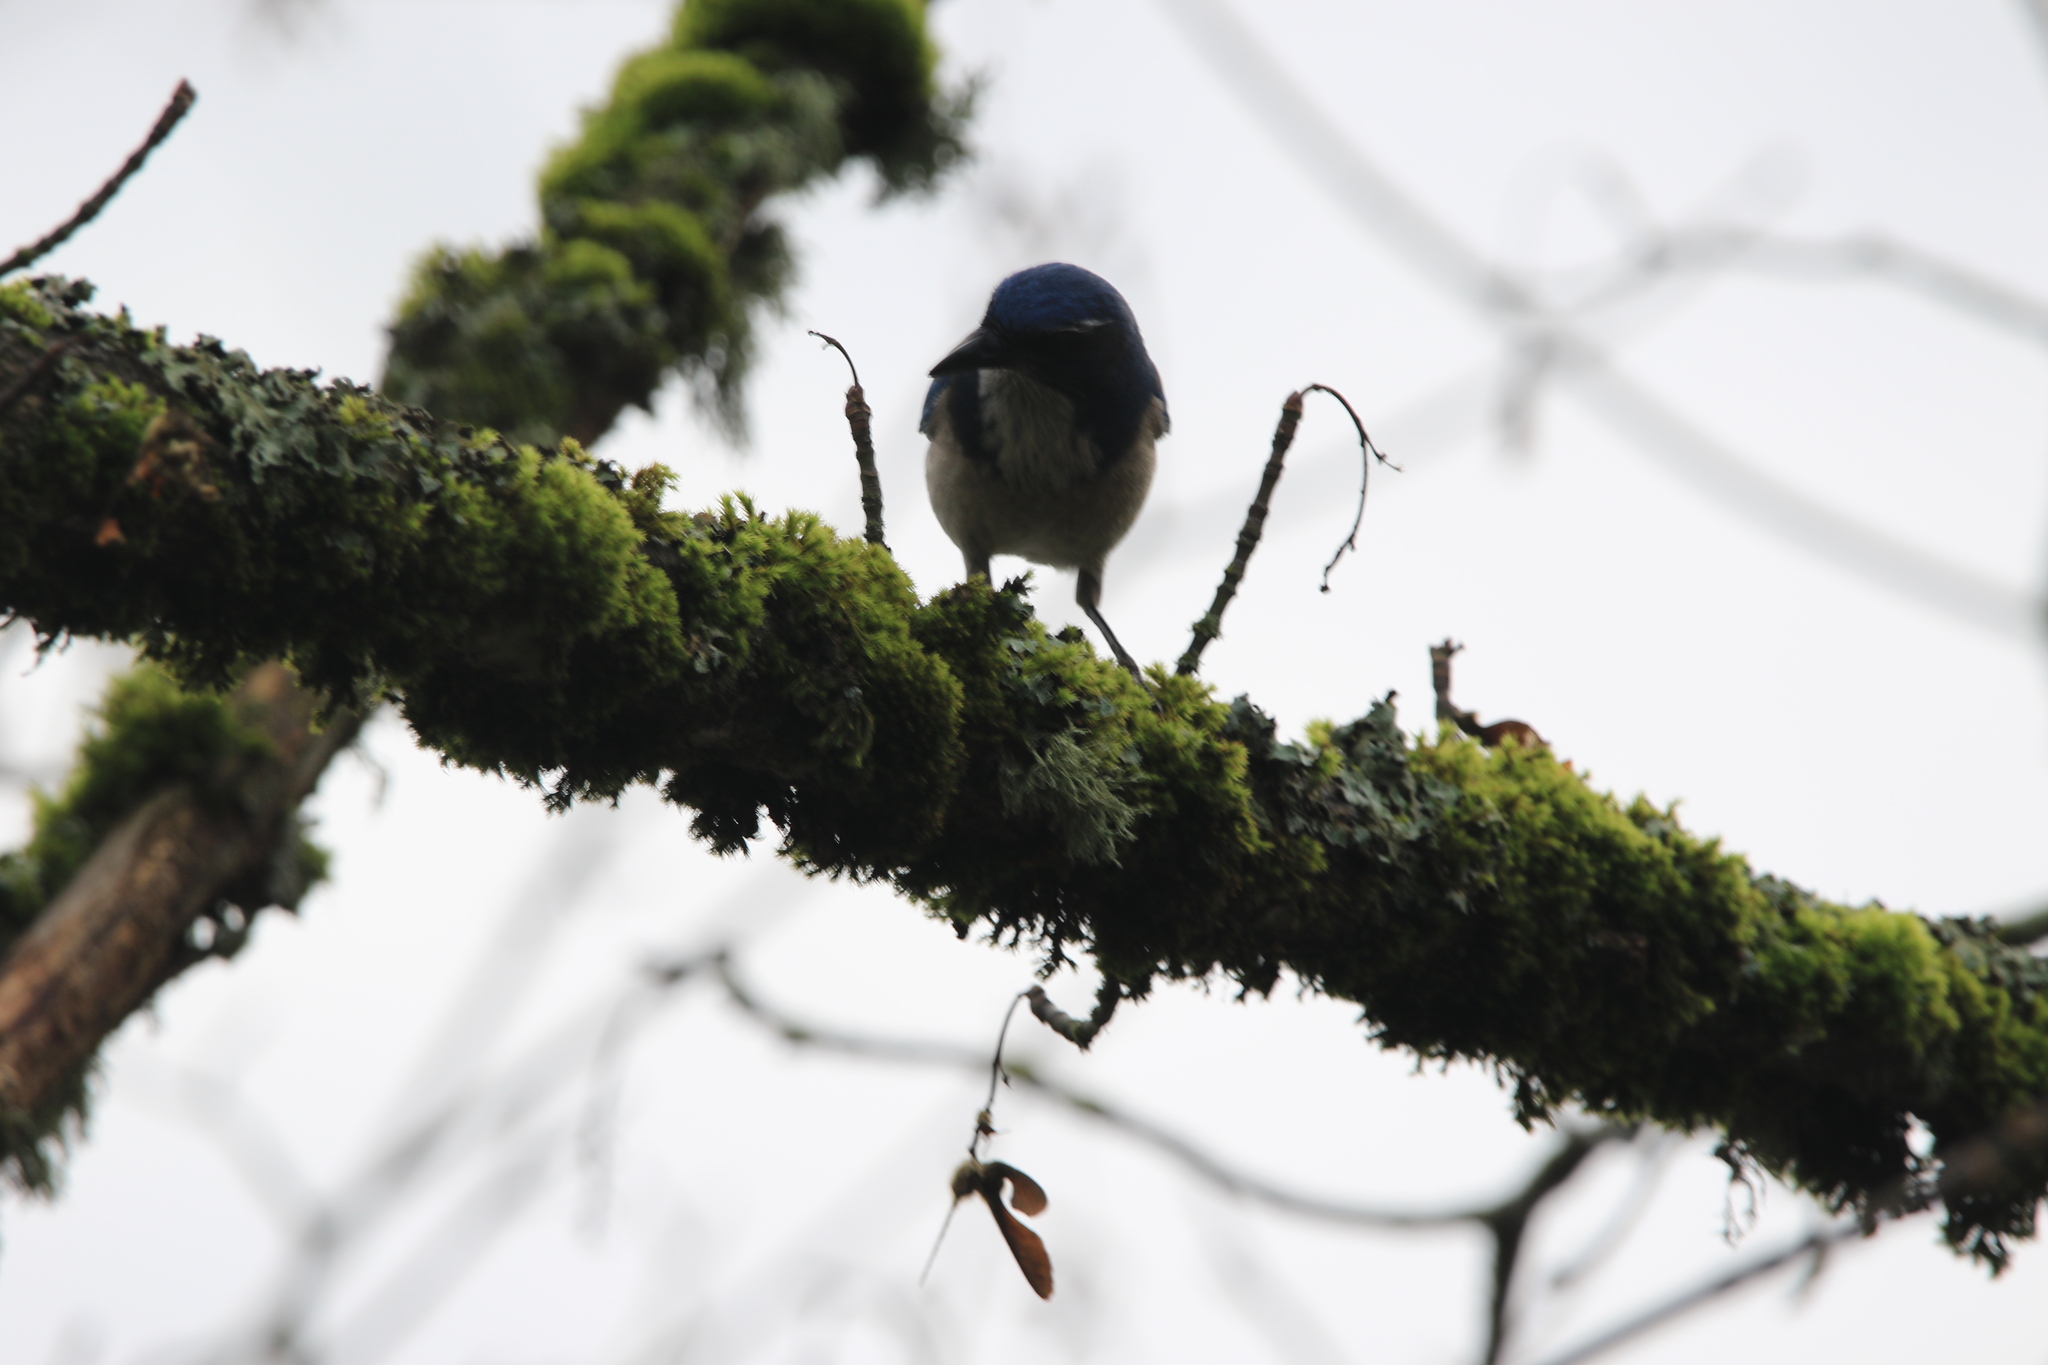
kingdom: Animalia
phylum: Chordata
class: Aves
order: Passeriformes
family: Corvidae
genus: Aphelocoma
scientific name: Aphelocoma californica
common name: California scrub-jay
